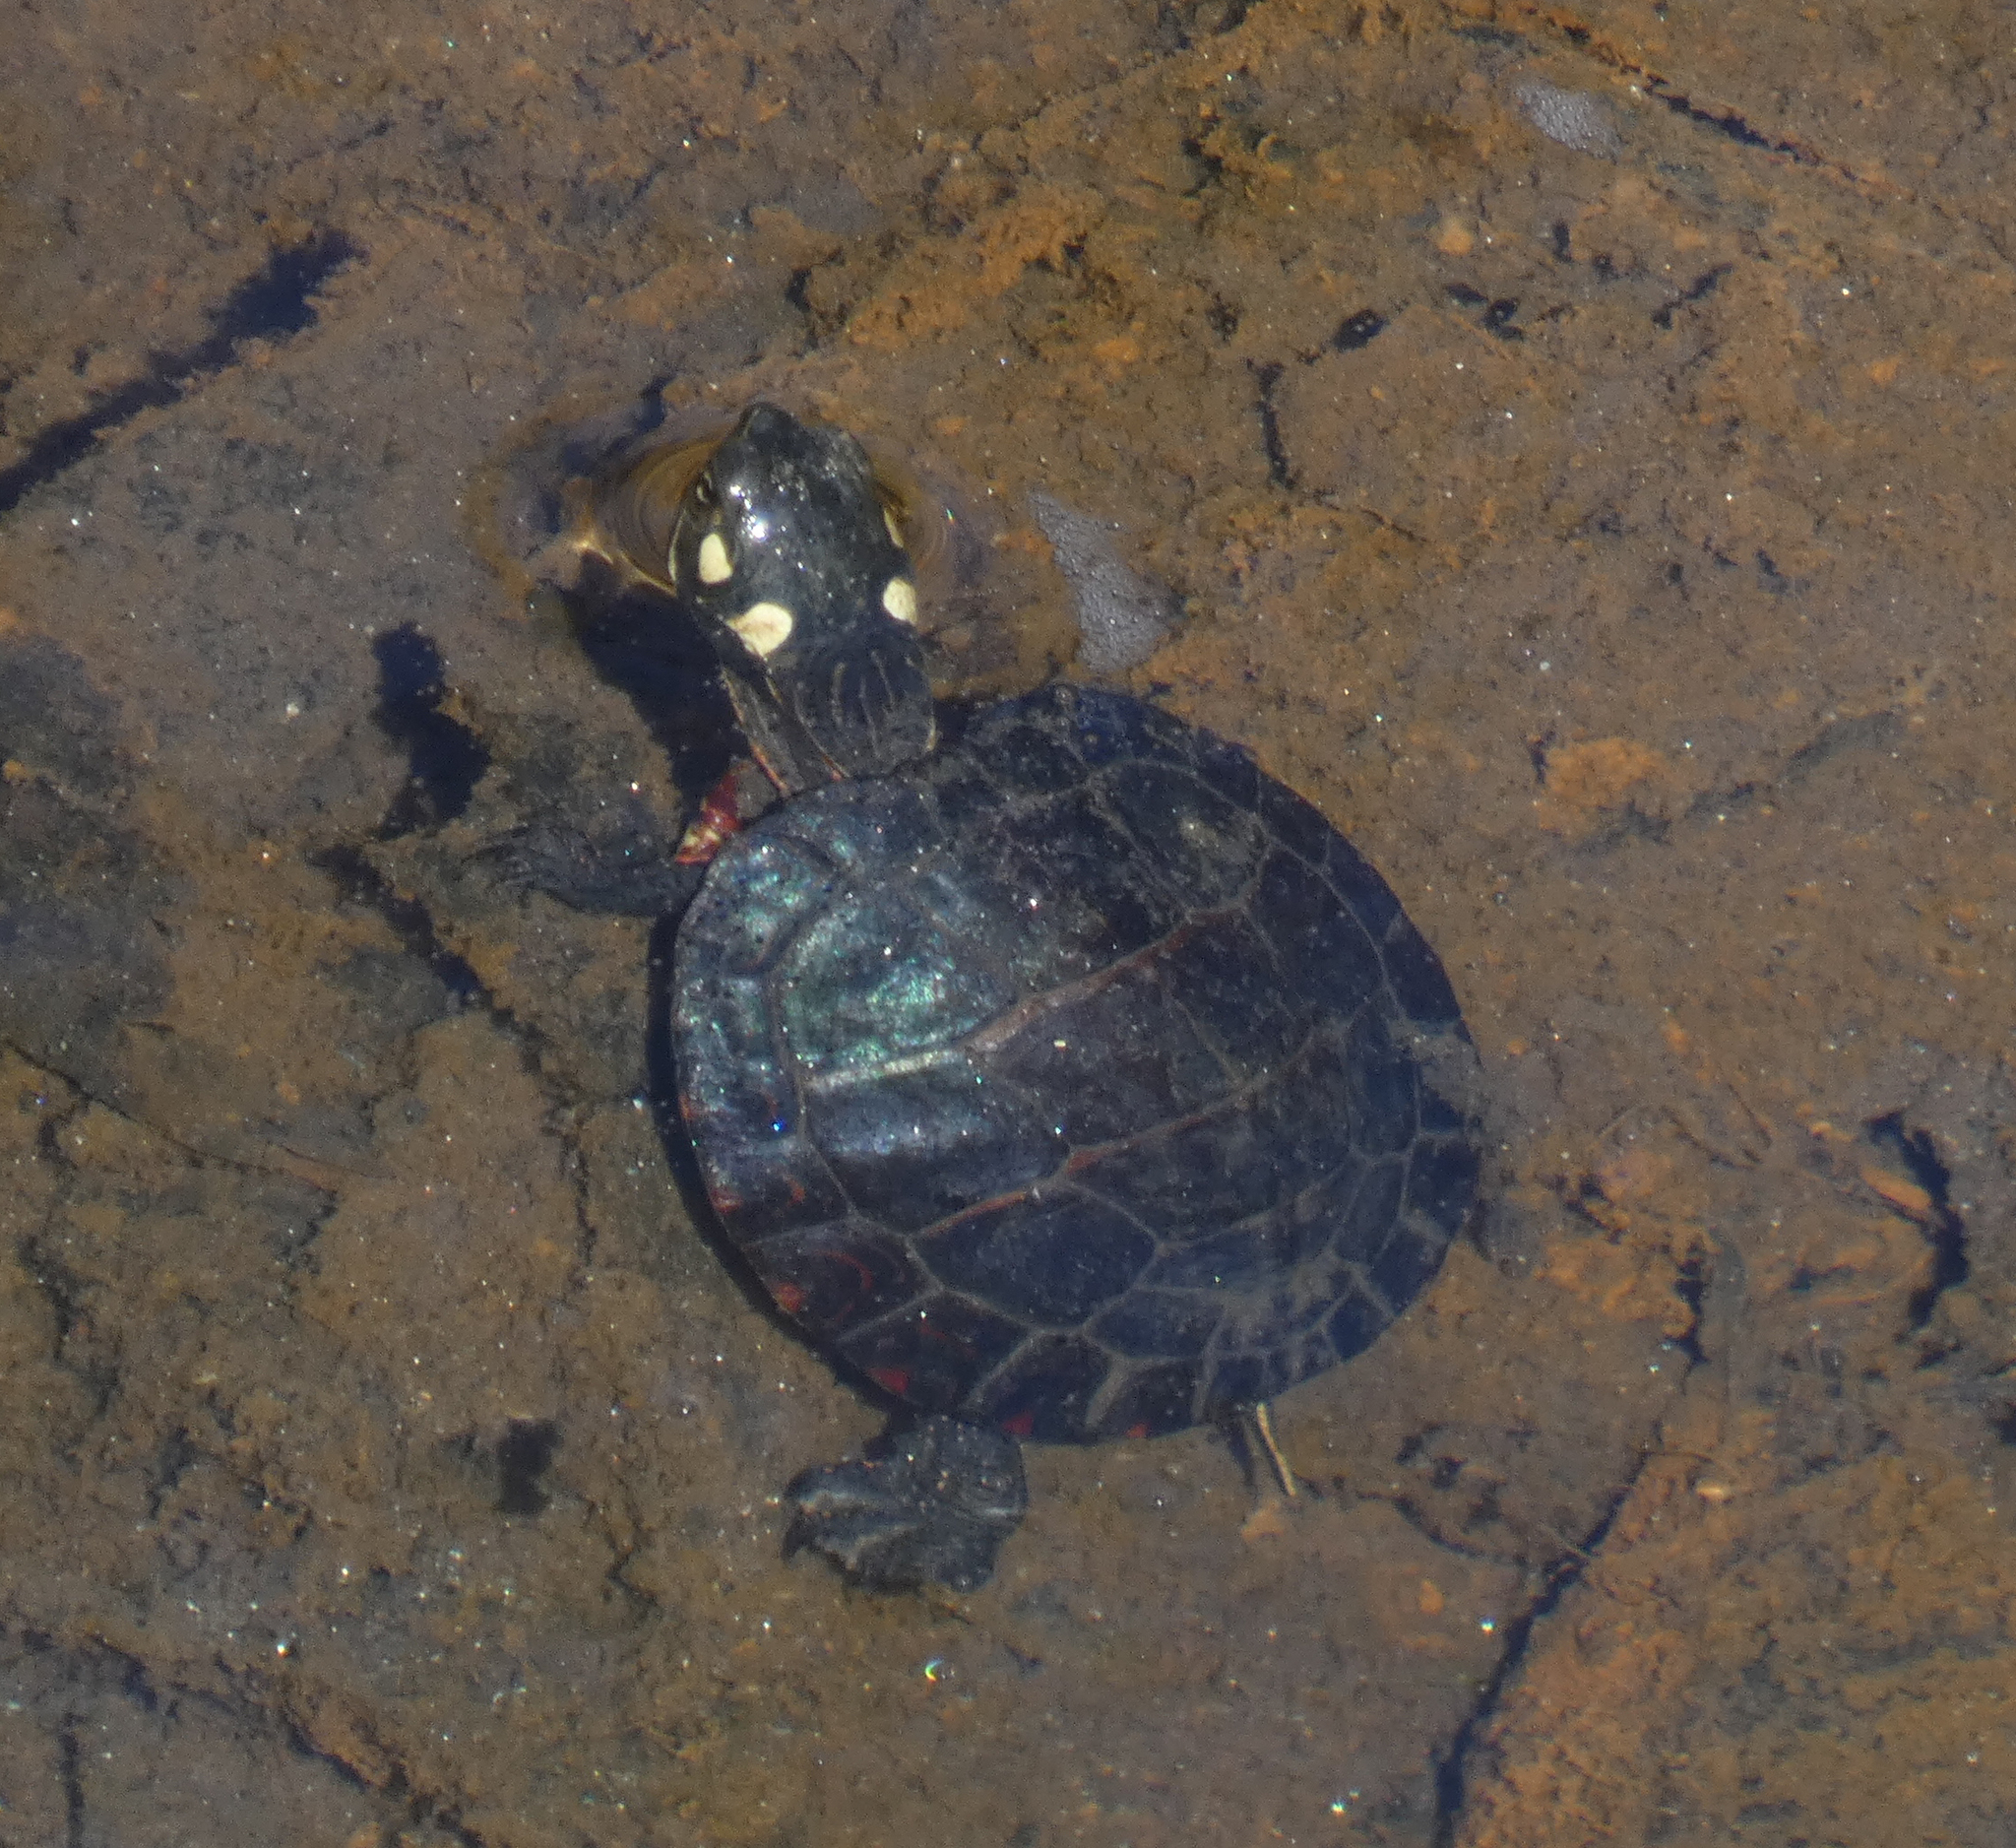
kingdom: Animalia
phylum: Chordata
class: Testudines
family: Emydidae
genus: Chrysemys
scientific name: Chrysemys picta
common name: Painted turtle
